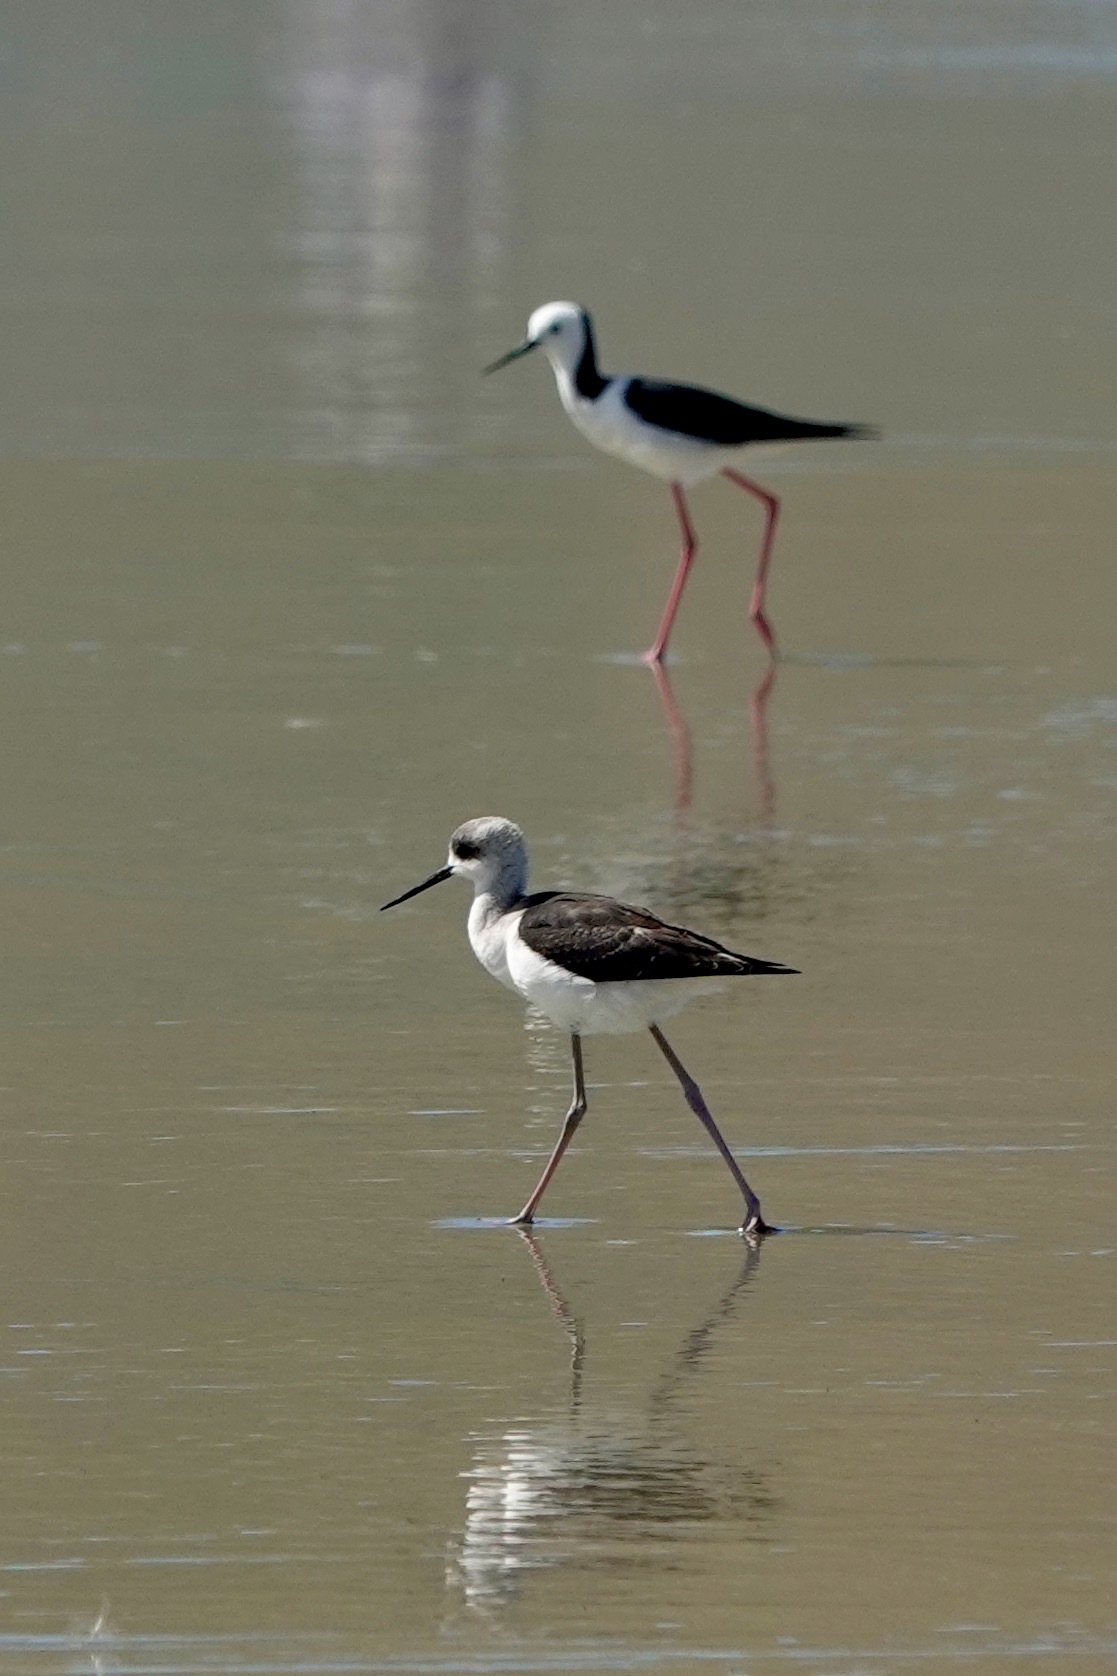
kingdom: Animalia
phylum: Chordata
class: Aves
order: Charadriiformes
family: Recurvirostridae
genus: Himantopus
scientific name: Himantopus leucocephalus
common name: White-headed stilt
